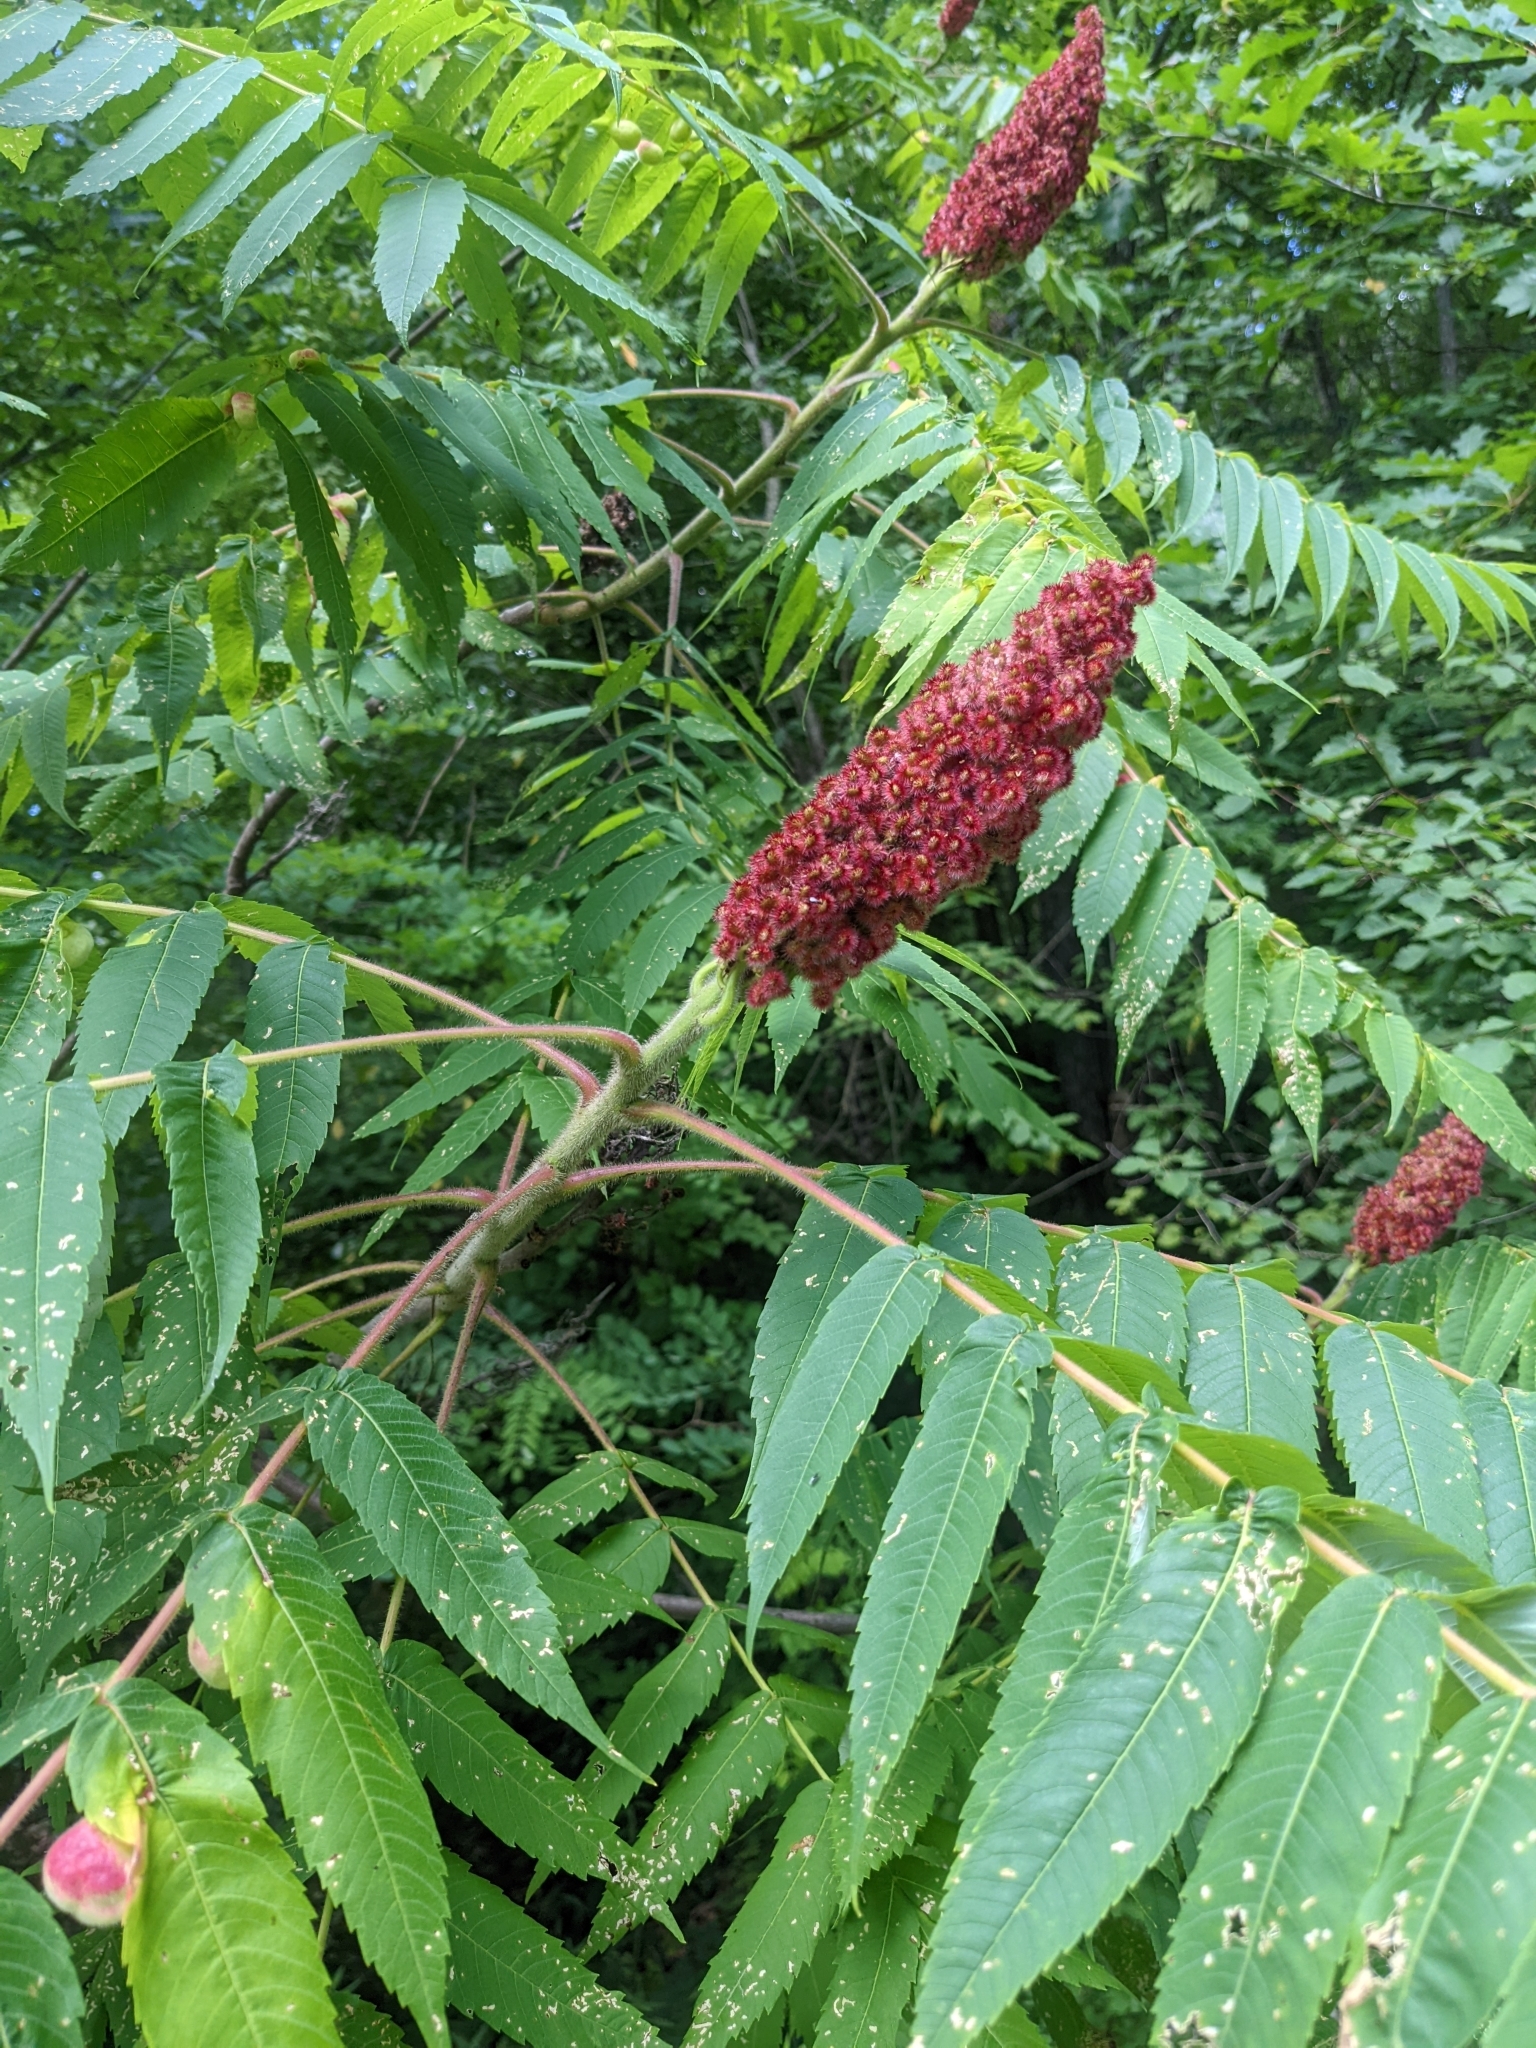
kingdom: Animalia
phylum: Arthropoda
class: Insecta
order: Hemiptera
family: Aphididae
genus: Melaphis
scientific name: Melaphis rhois
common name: Sumac gall aphid
